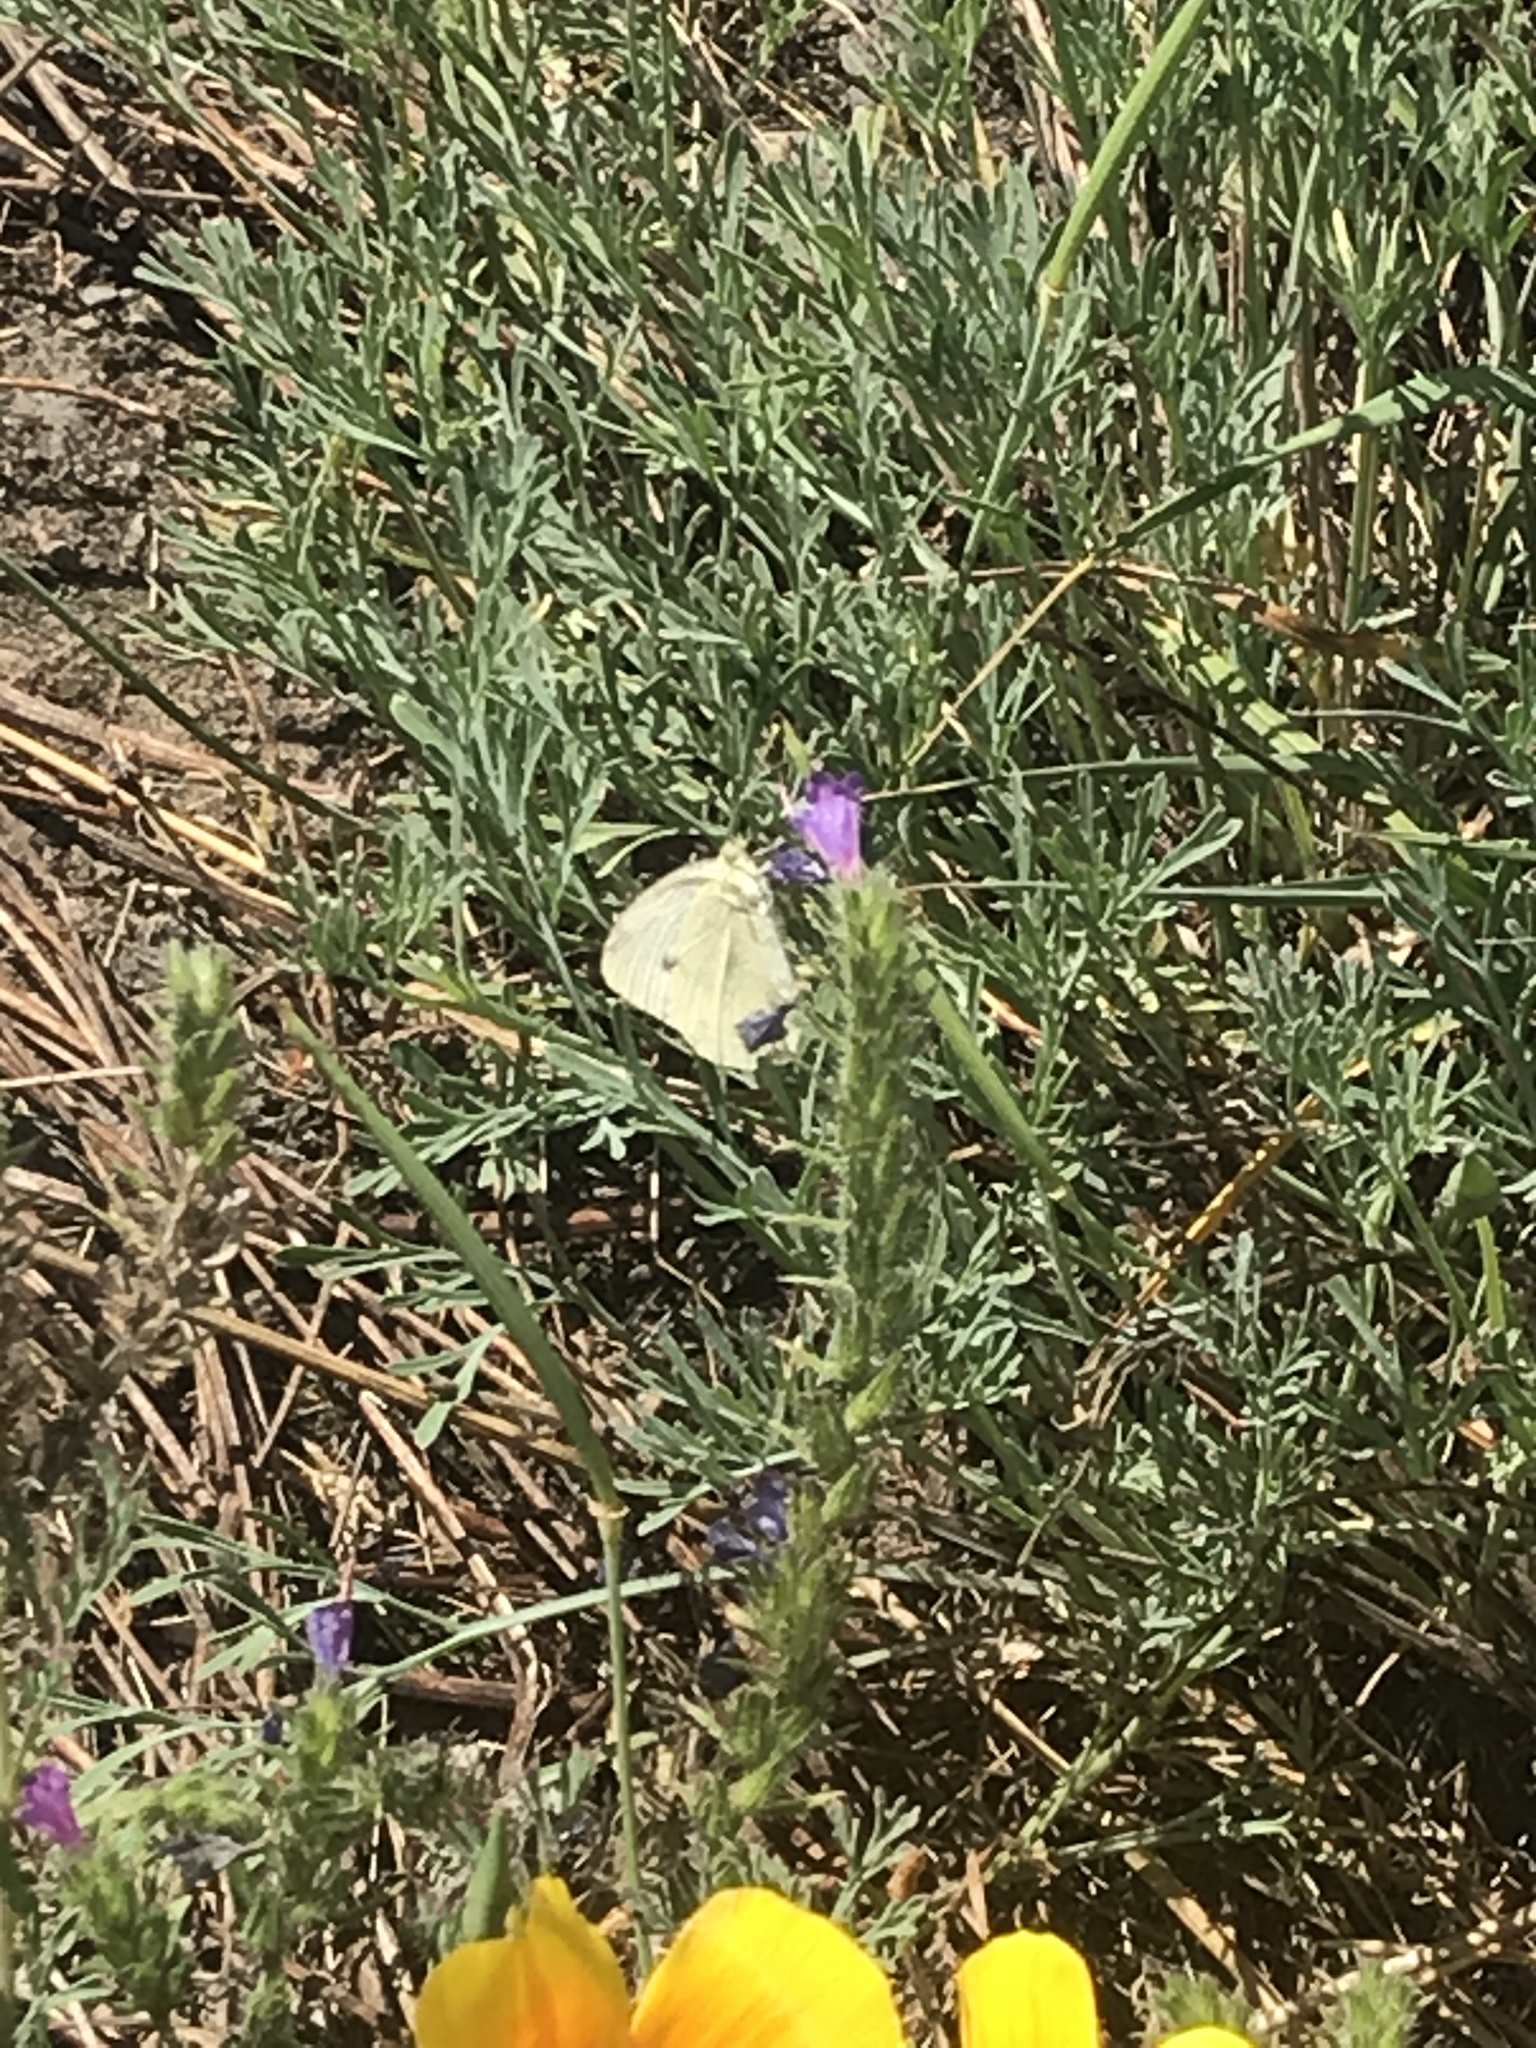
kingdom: Animalia
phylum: Arthropoda
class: Insecta
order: Lepidoptera
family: Pieridae
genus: Pieris
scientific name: Pieris rapae
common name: Small white
